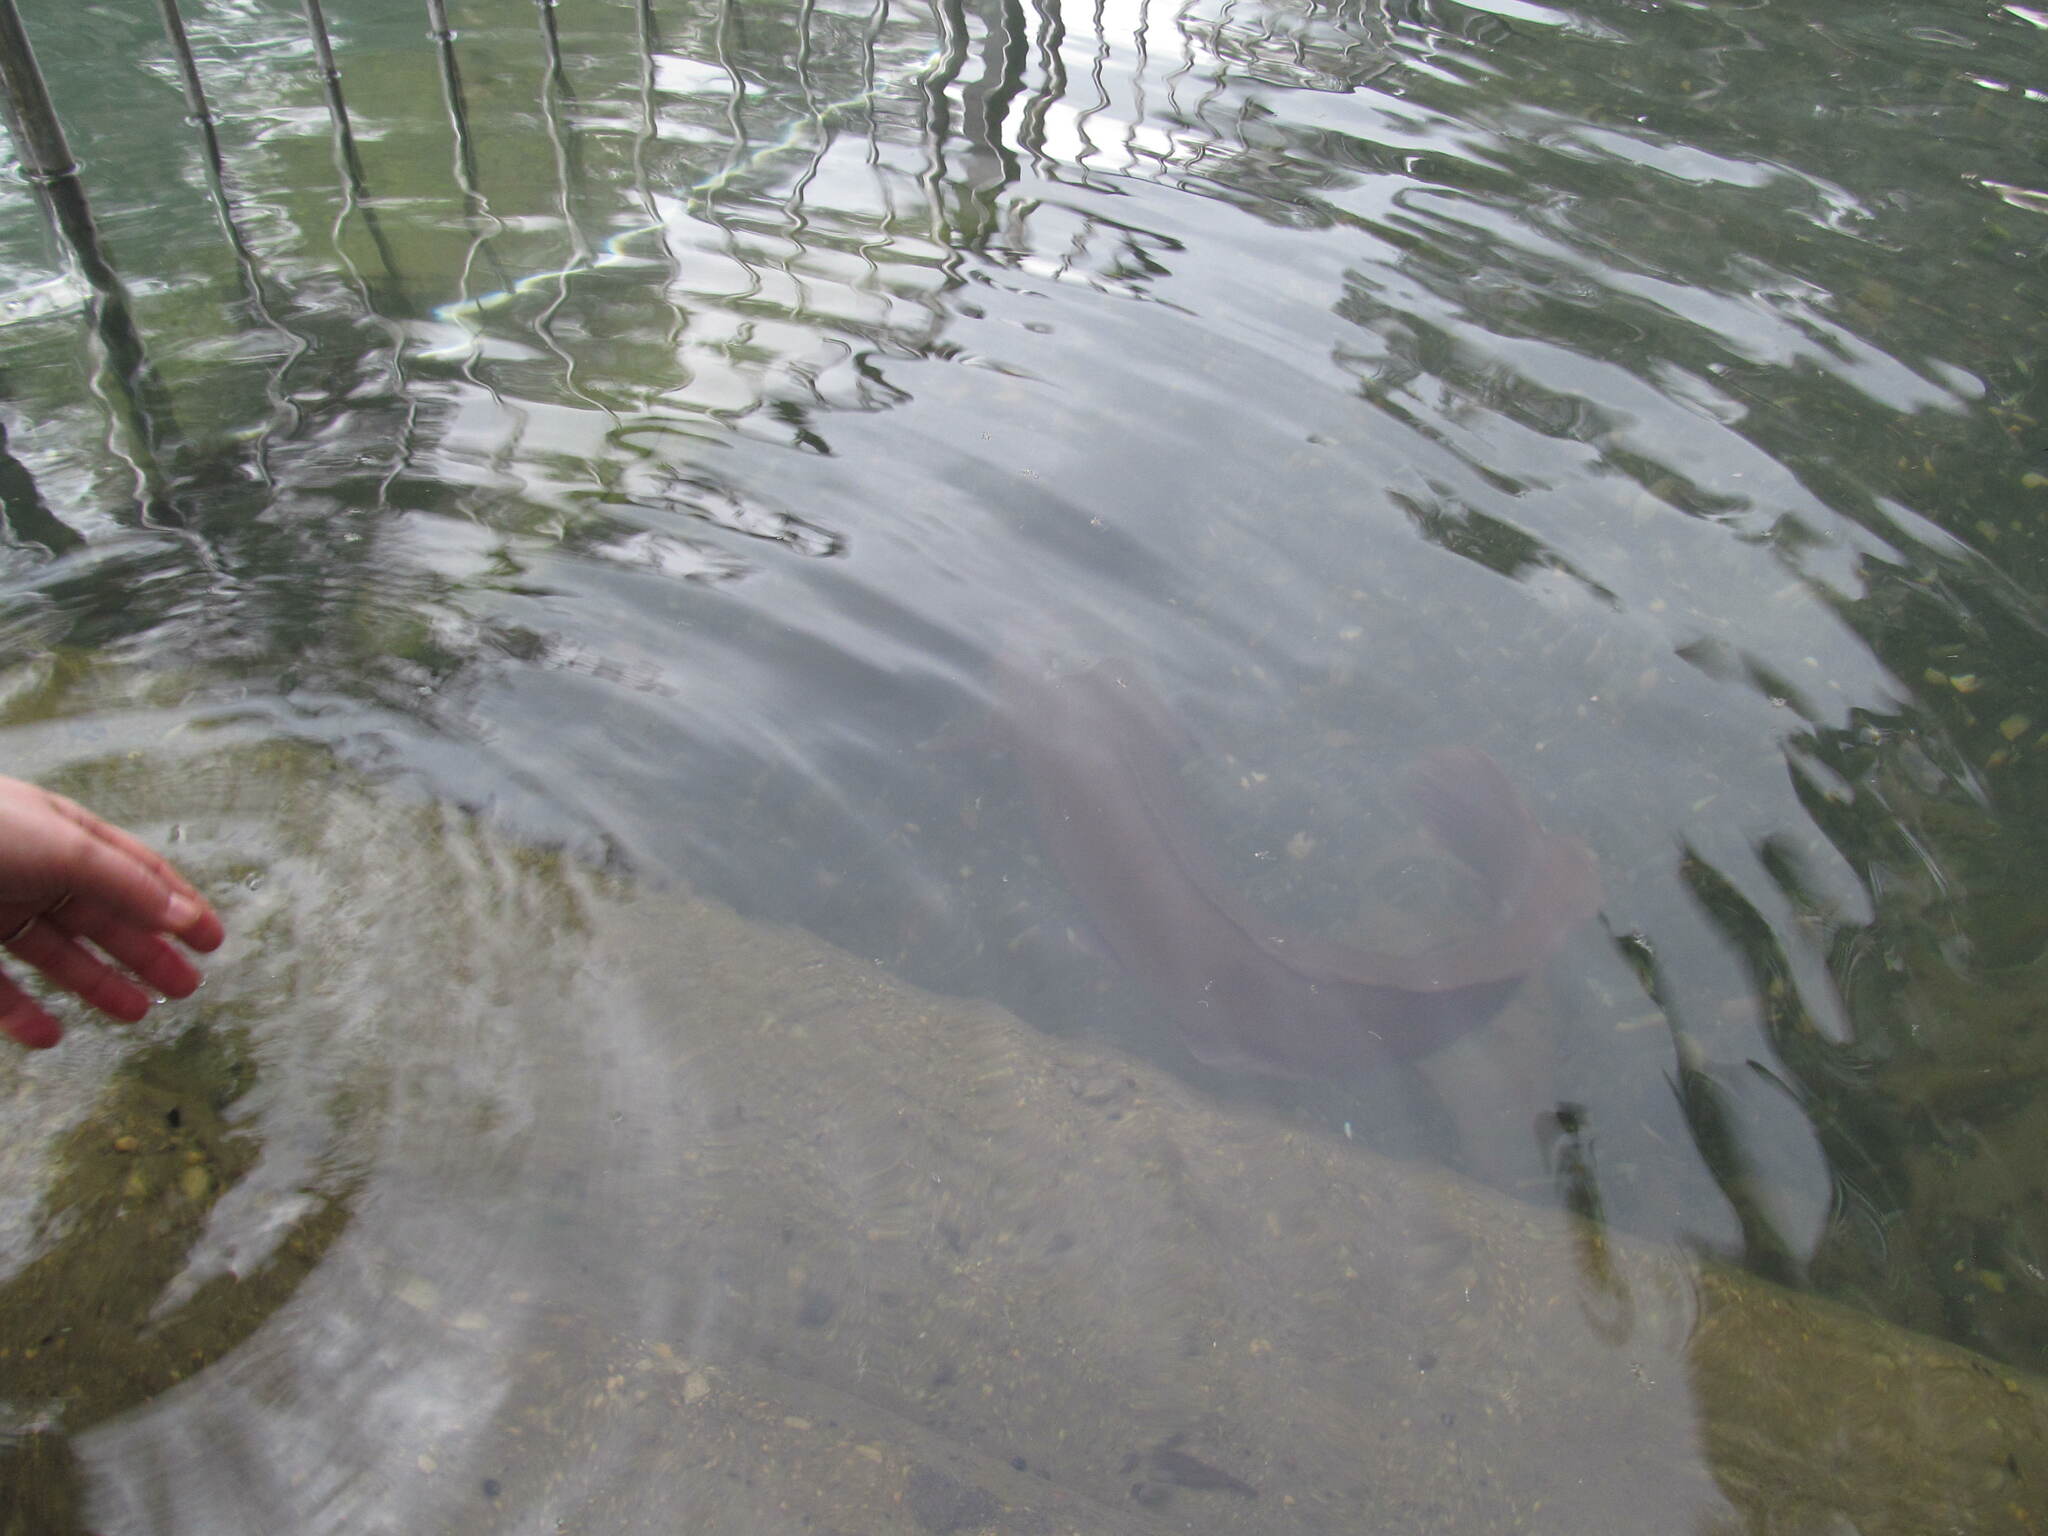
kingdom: Animalia
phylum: Chordata
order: Siluriformes
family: Clariidae
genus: Clarias
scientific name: Clarias gariepinus
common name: African catfish
